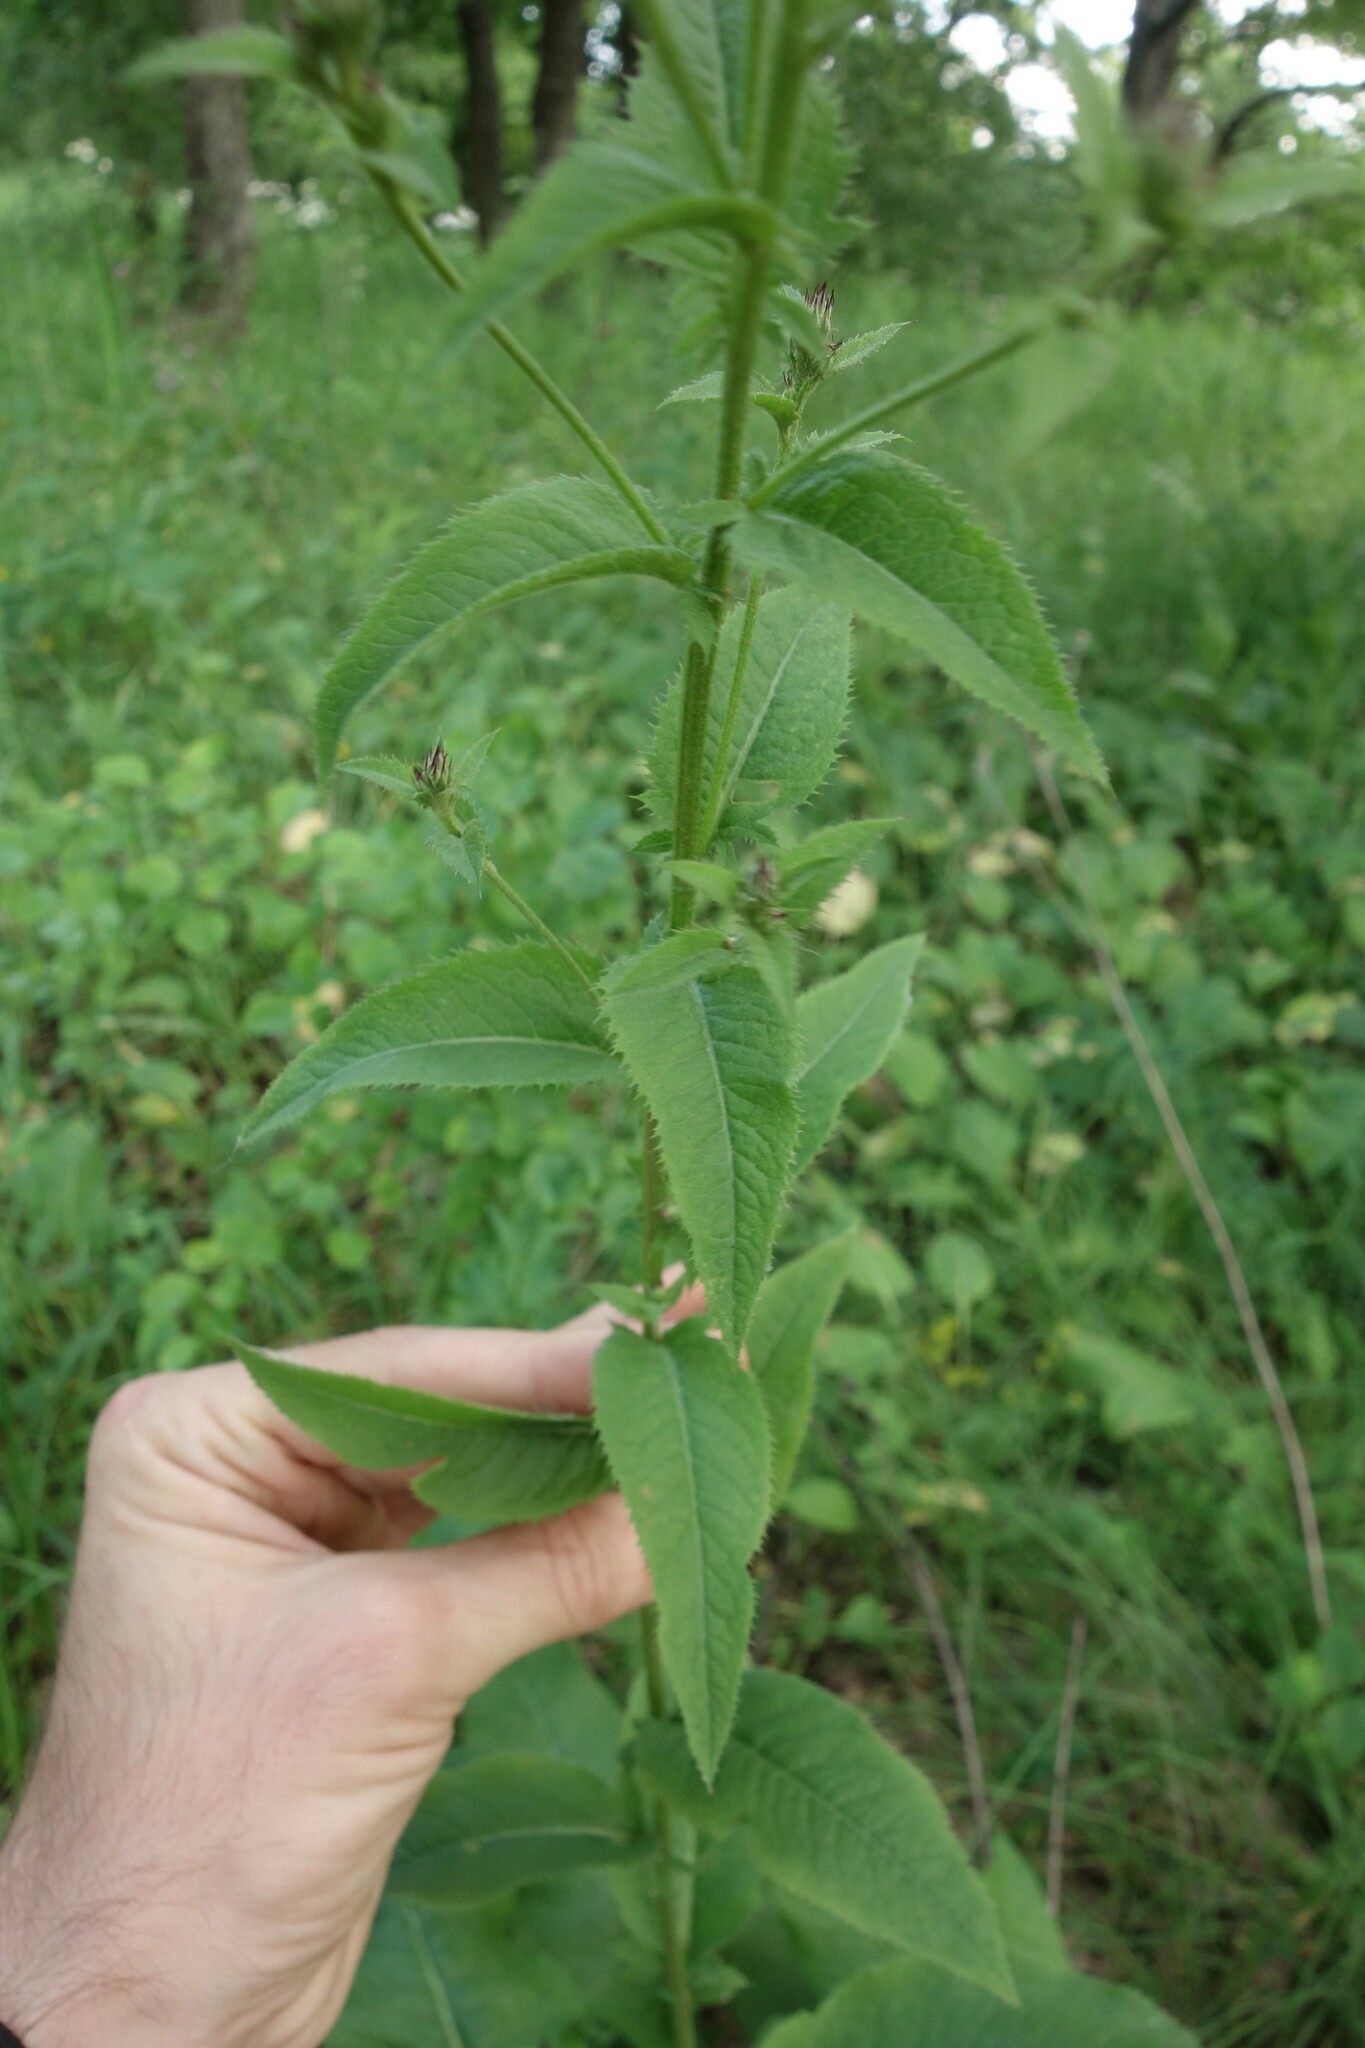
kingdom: Plantae
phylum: Tracheophyta
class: Magnoliopsida
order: Asterales
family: Asteraceae
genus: Serratula
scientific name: Serratula tinctoria
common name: Saw-wort
